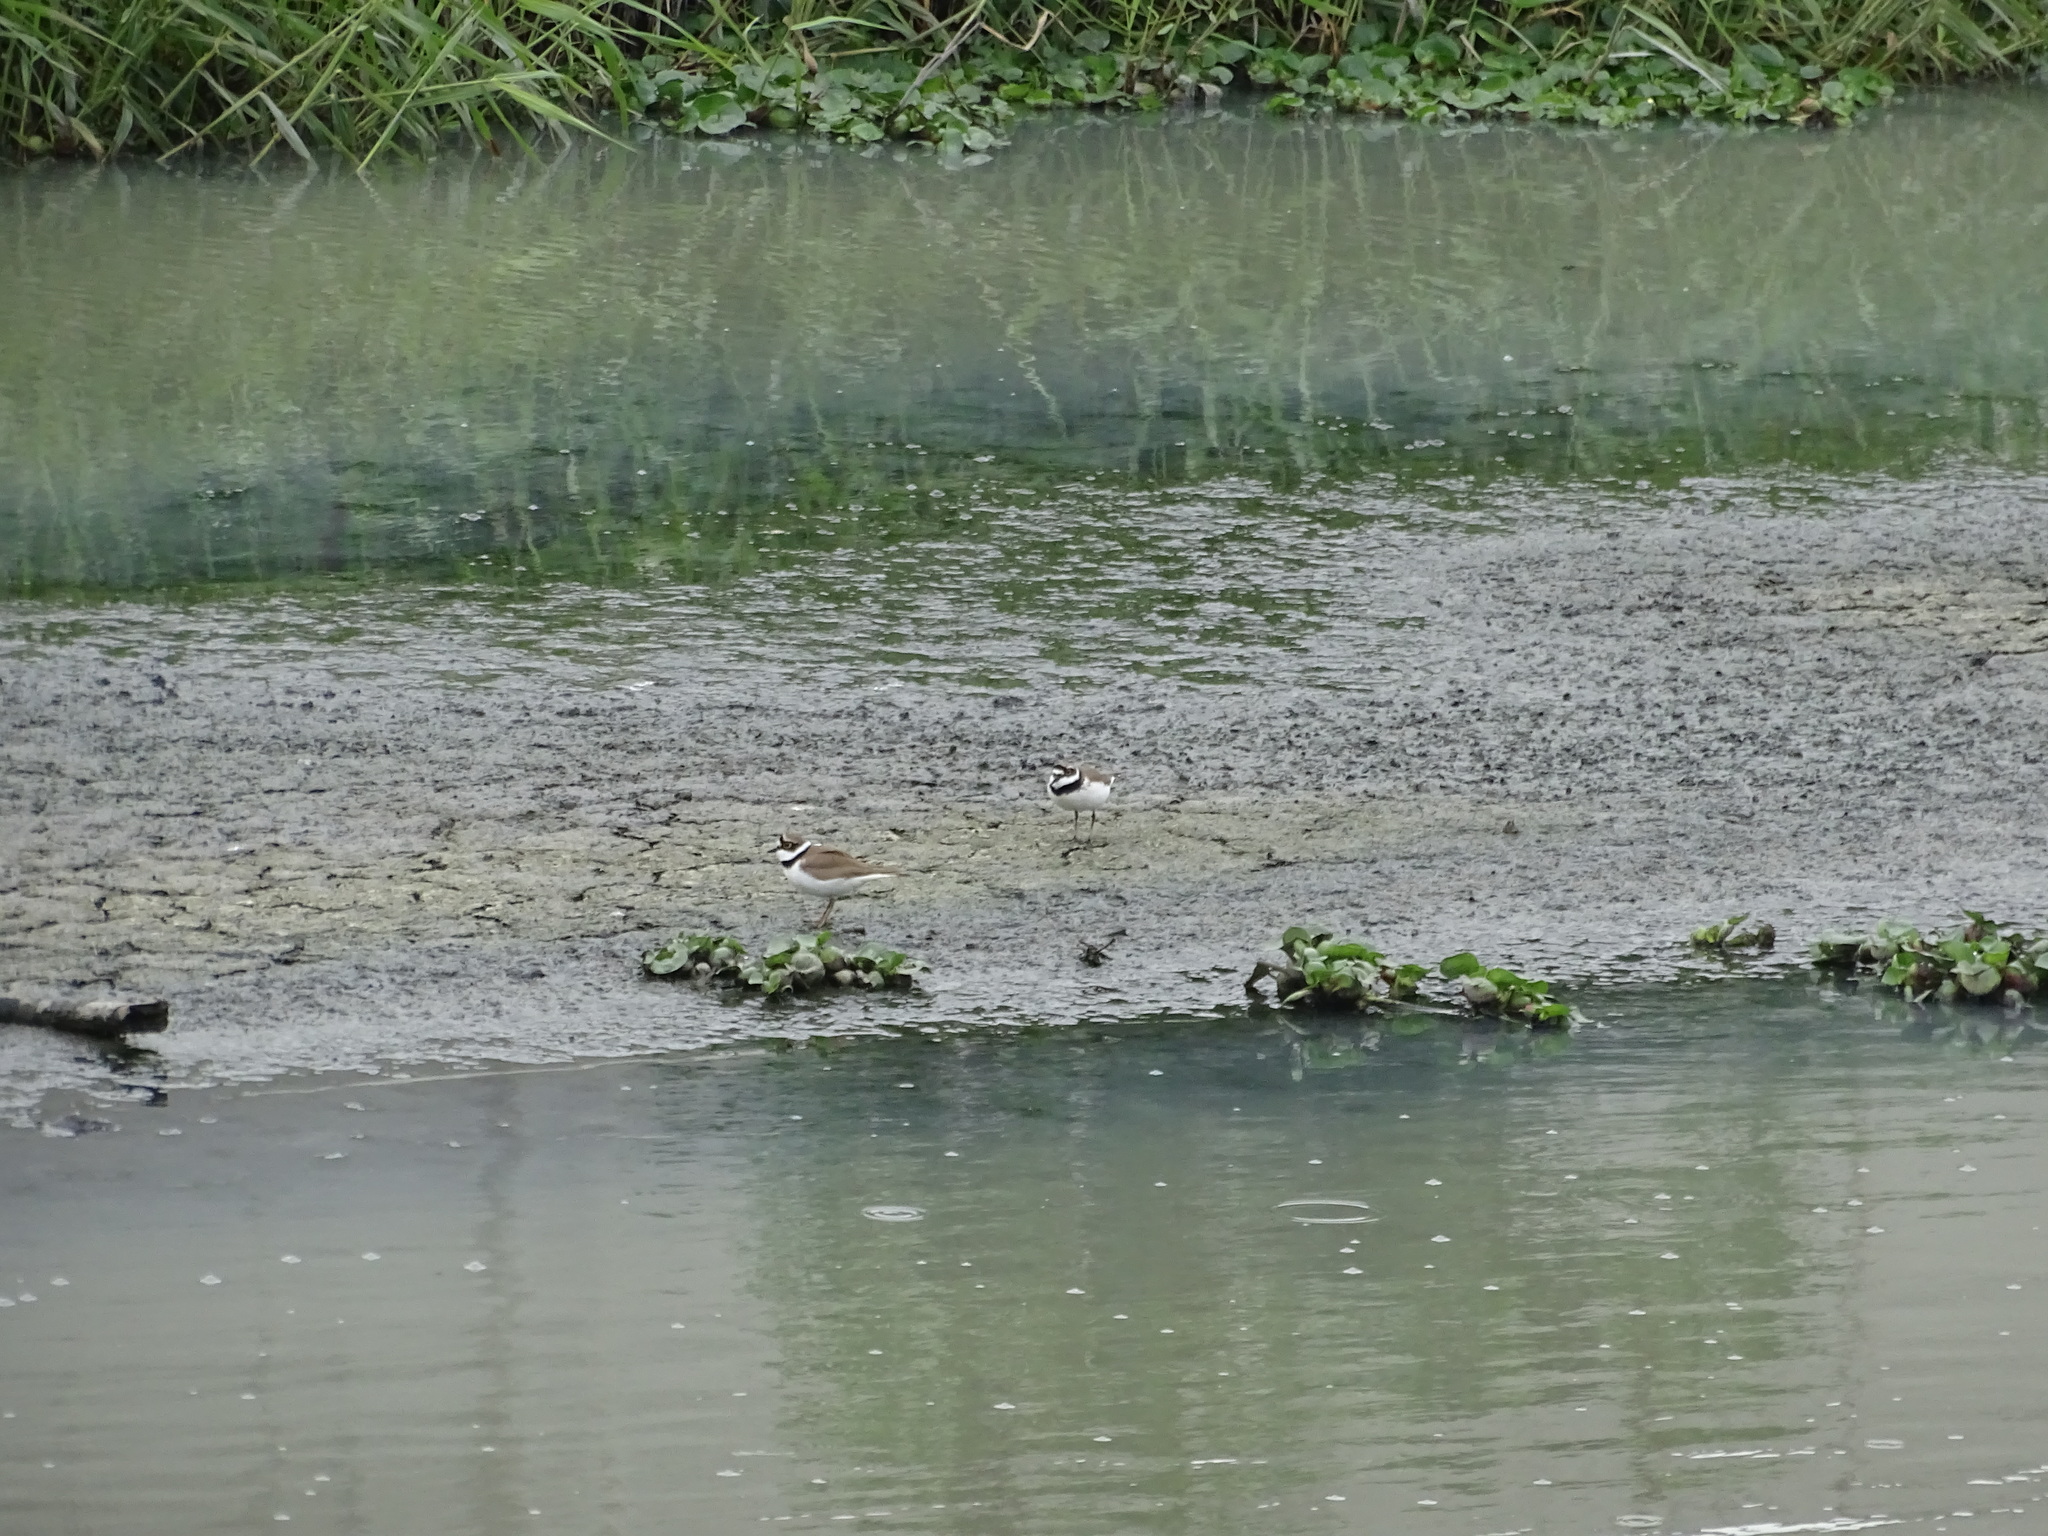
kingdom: Animalia
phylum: Chordata
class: Aves
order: Charadriiformes
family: Charadriidae
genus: Charadrius
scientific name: Charadrius dubius
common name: Little ringed plover
